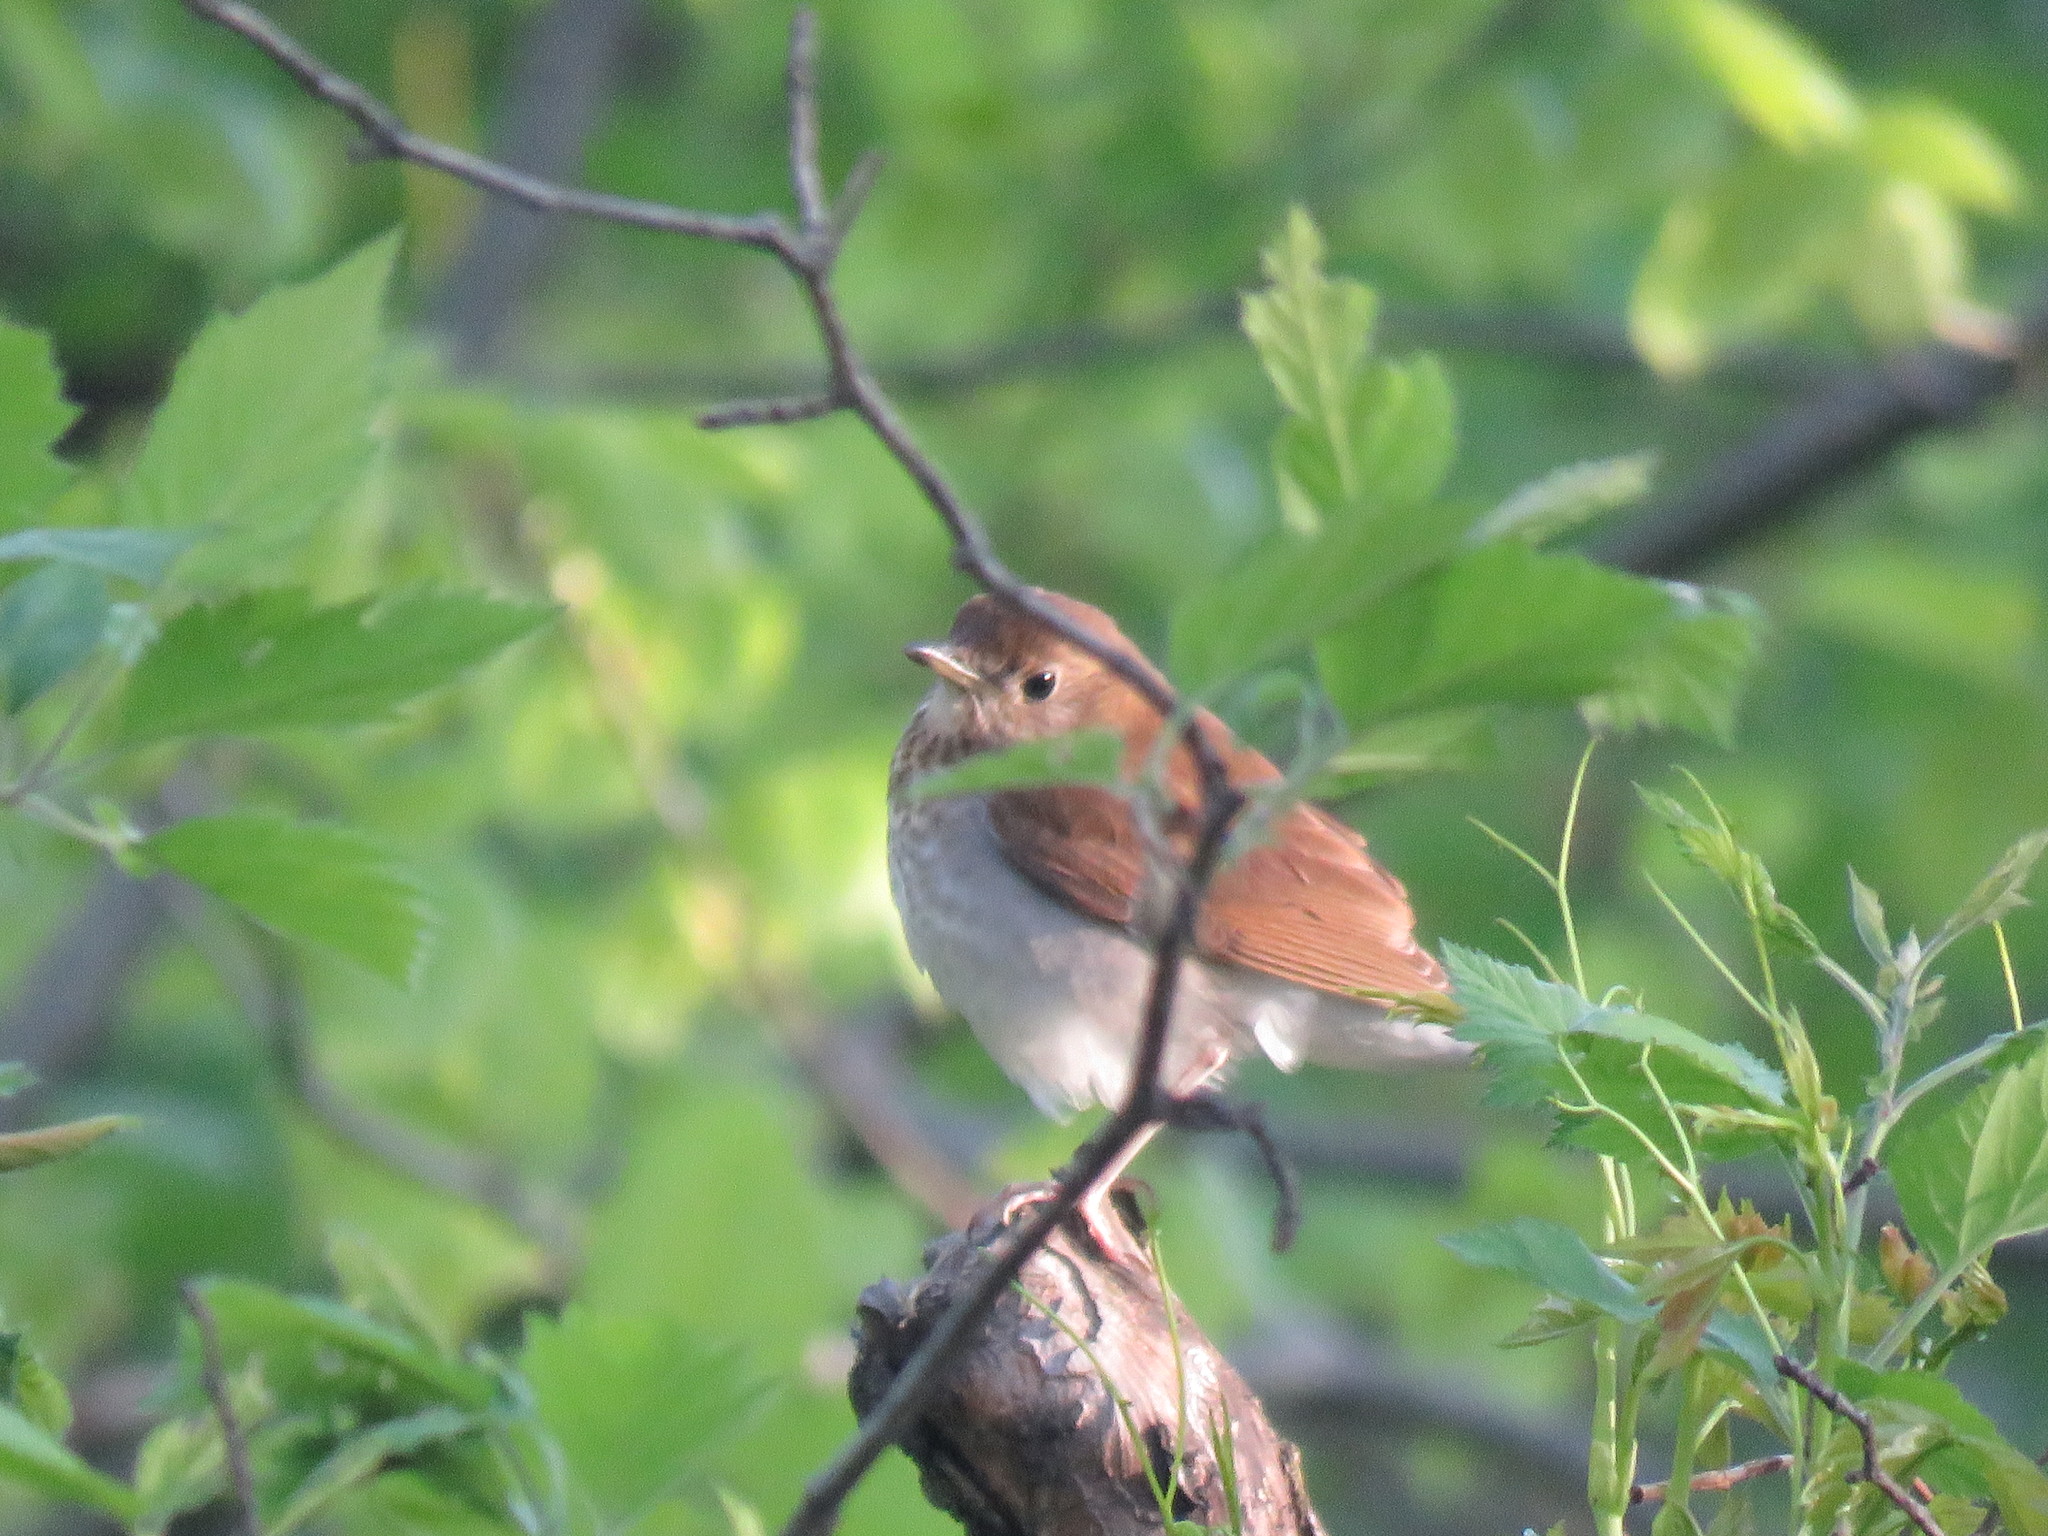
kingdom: Animalia
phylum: Chordata
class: Aves
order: Passeriformes
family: Turdidae
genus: Catharus
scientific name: Catharus fuscescens
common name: Veery
